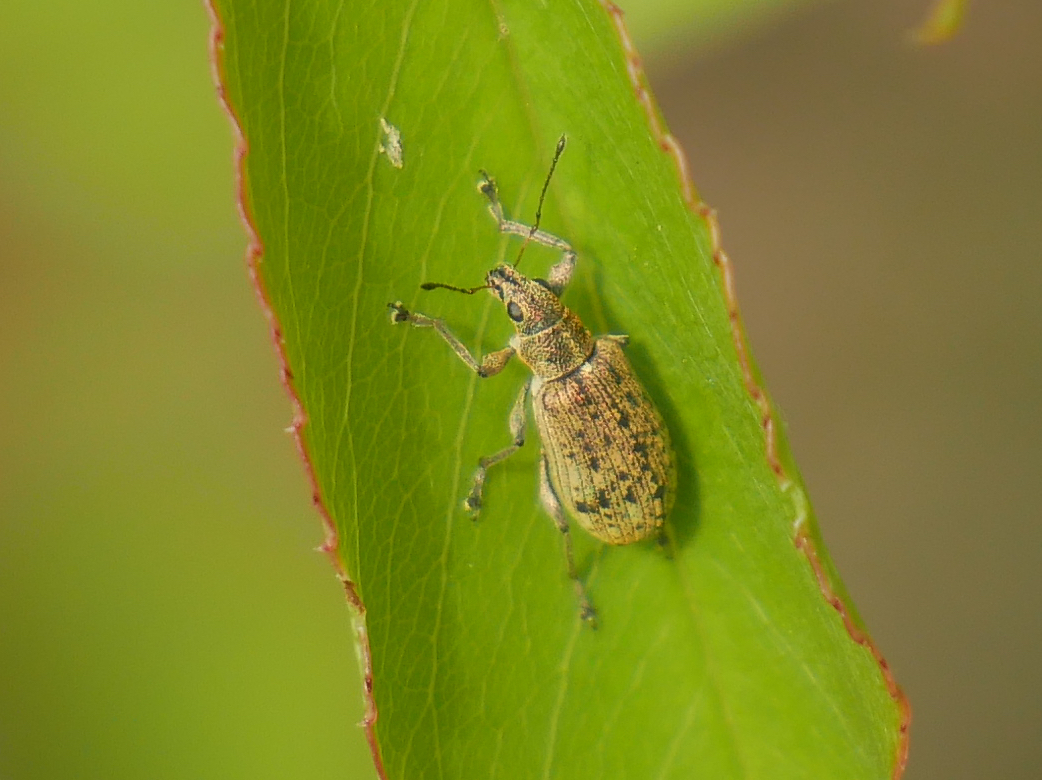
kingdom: Animalia
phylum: Arthropoda
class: Insecta
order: Coleoptera
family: Curculionidae
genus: Polydrusus
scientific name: Polydrusus cervinus
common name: Weevil
